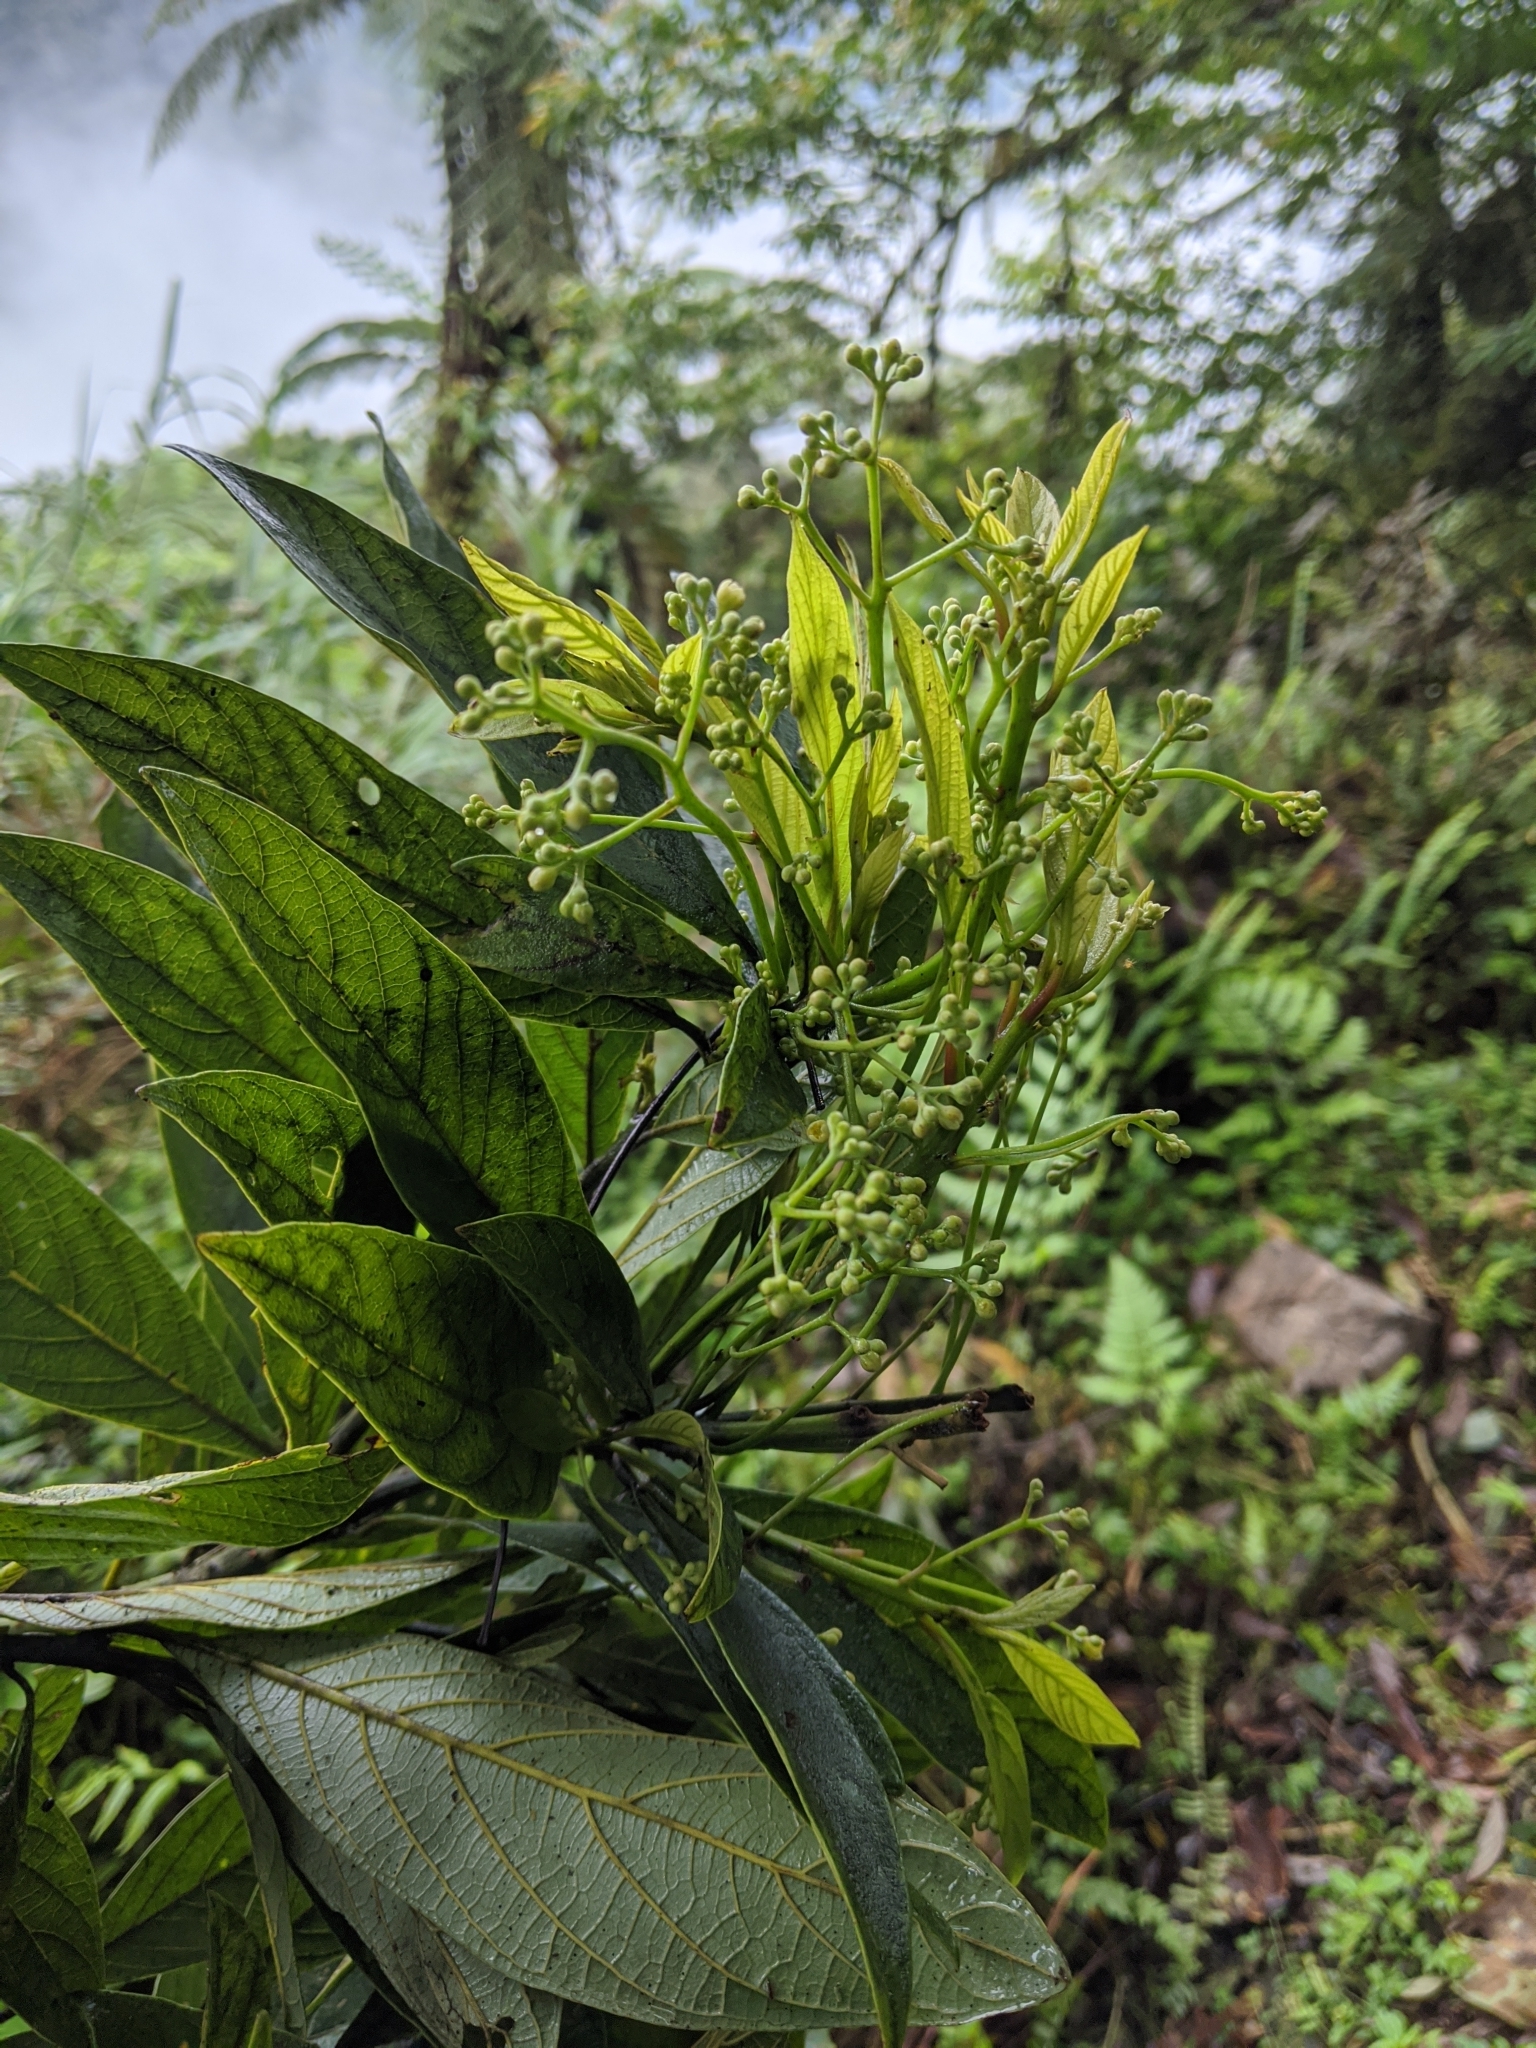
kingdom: Plantae
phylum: Tracheophyta
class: Magnoliopsida
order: Laurales
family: Lauraceae
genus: Phoebe
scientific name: Phoebe formosana
